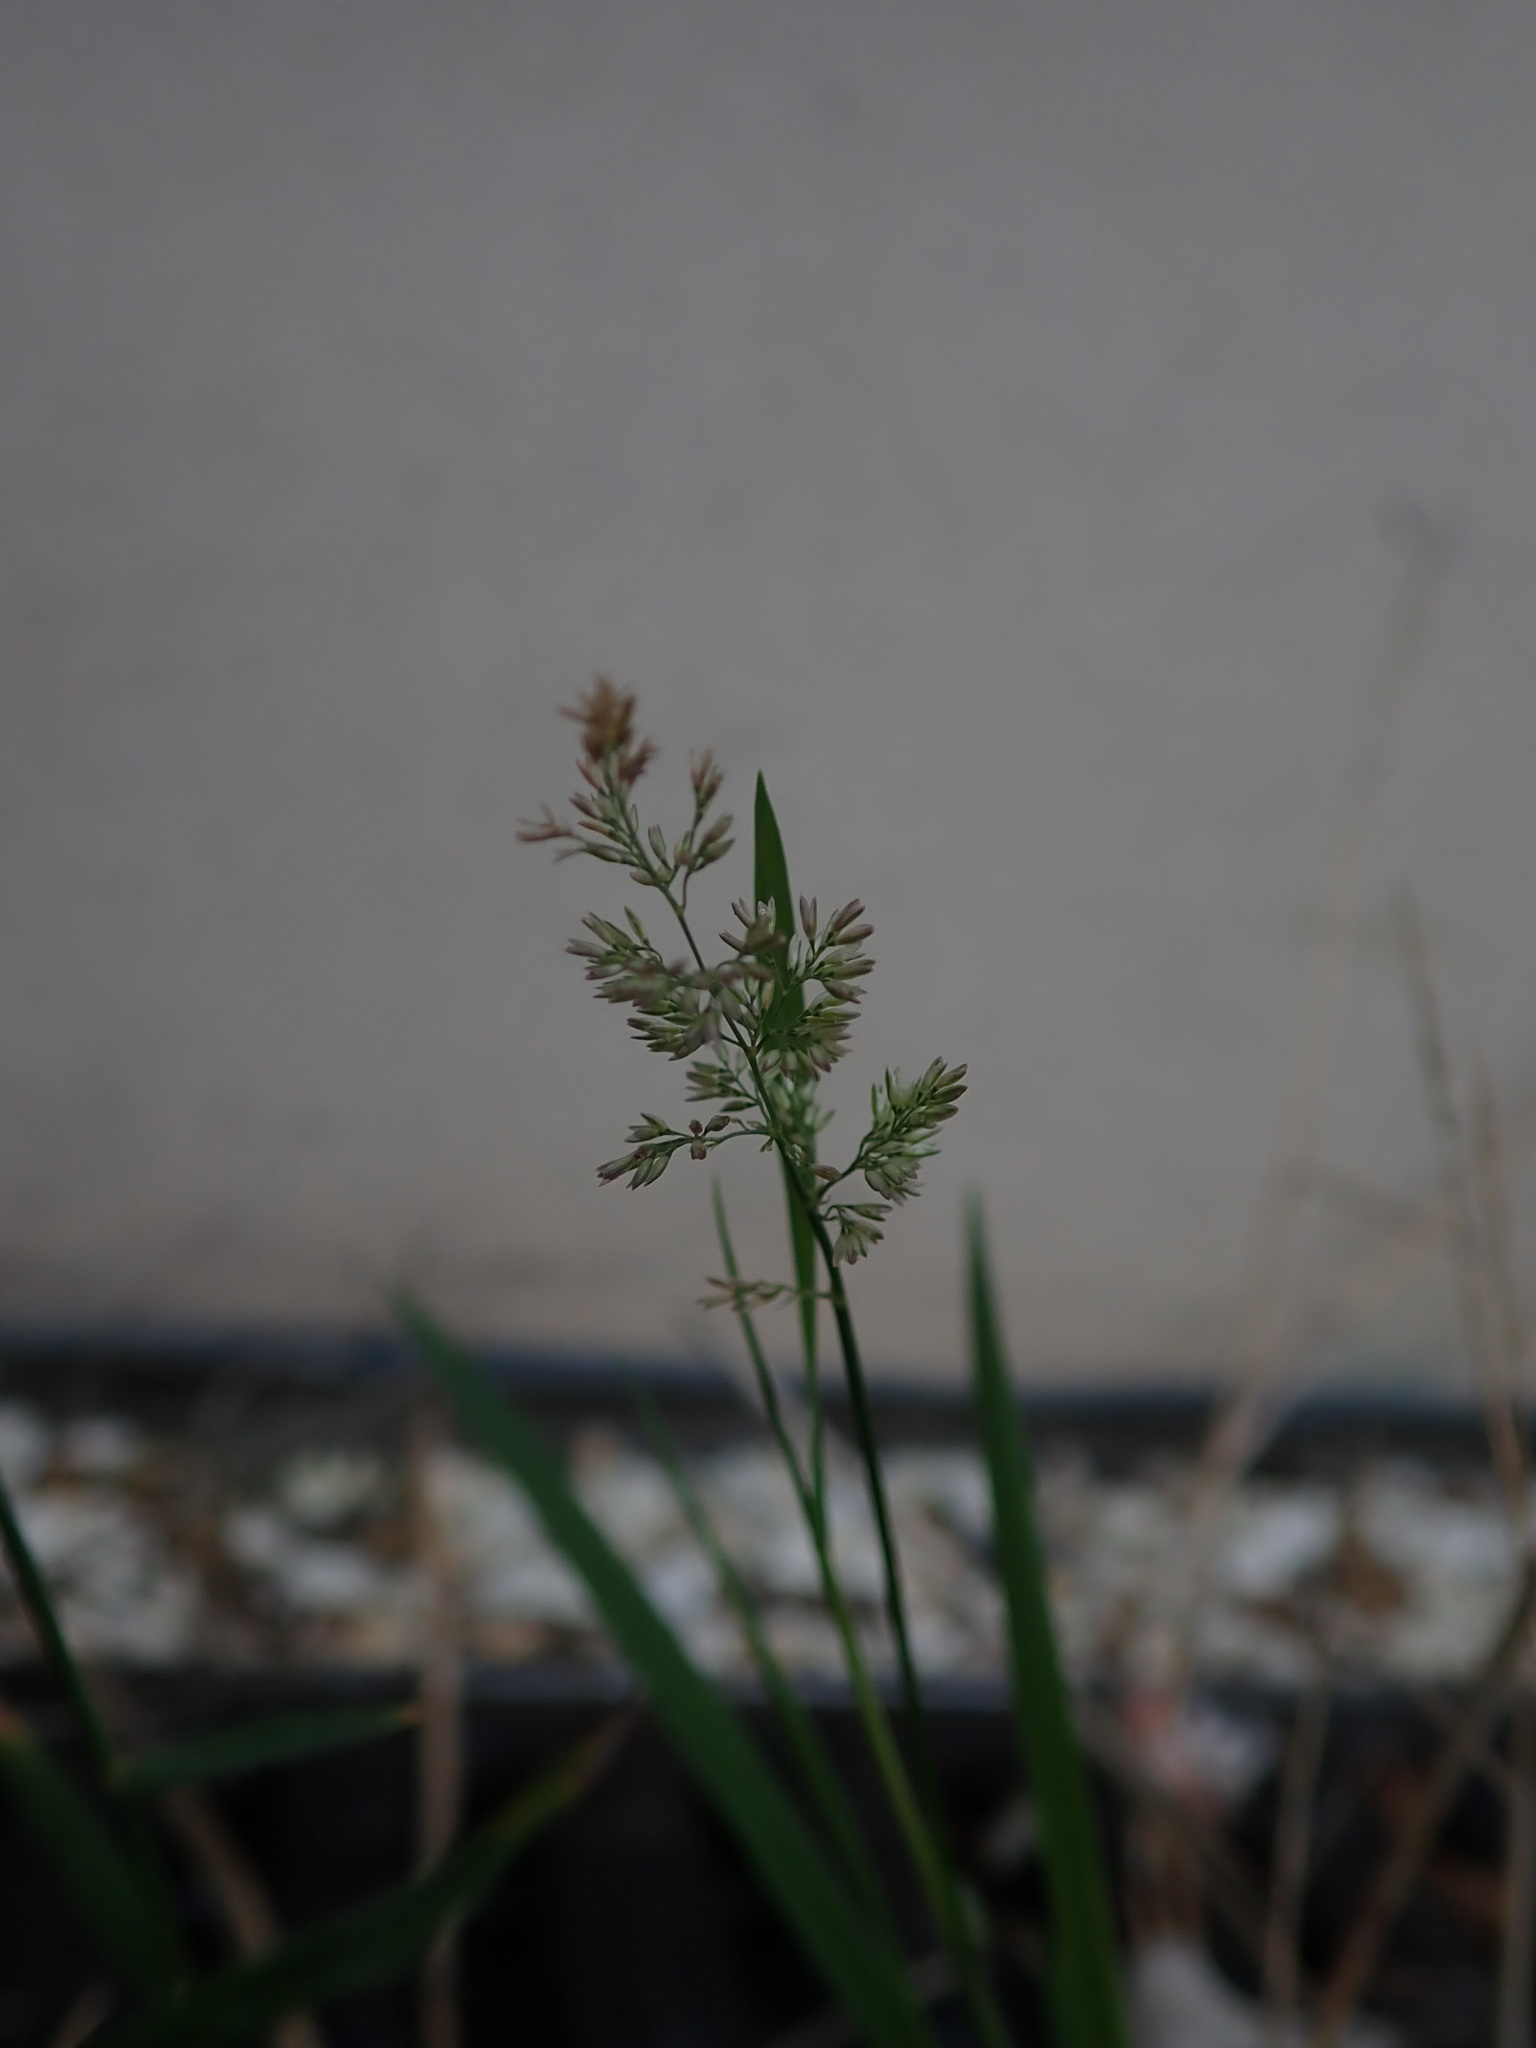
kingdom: Plantae
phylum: Tracheophyta
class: Liliopsida
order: Poales
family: Poaceae
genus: Polypogon
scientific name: Polypogon viridis
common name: Water bent
